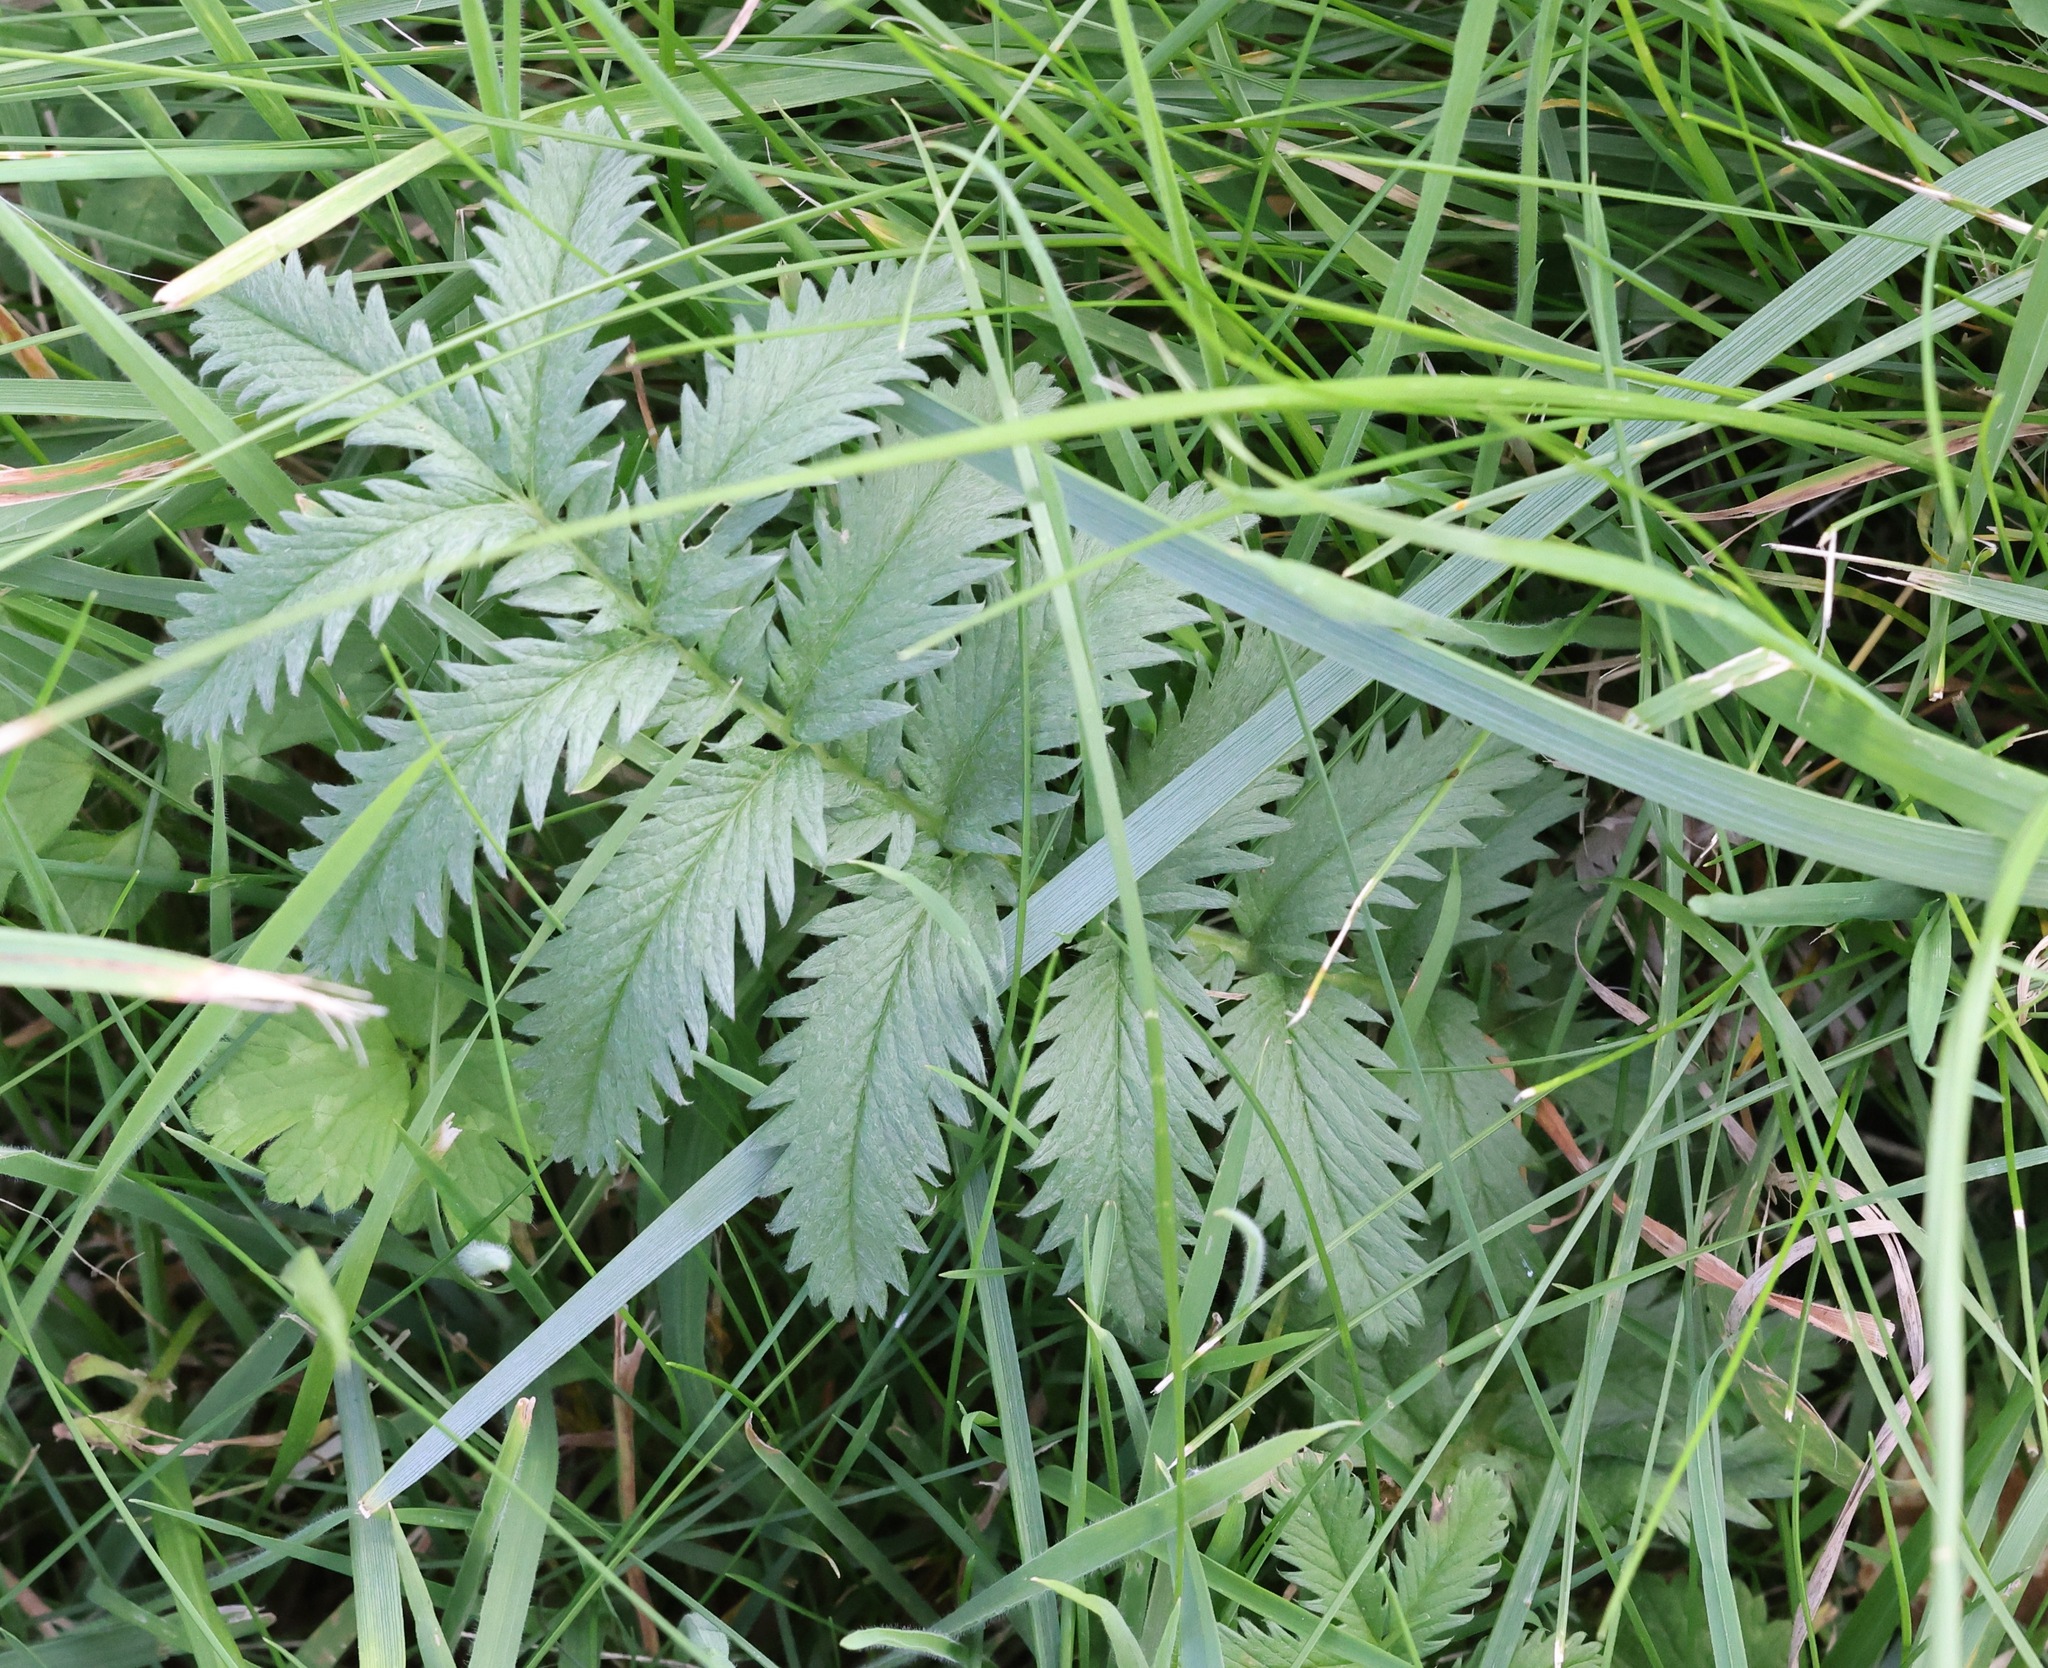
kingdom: Plantae
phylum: Tracheophyta
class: Magnoliopsida
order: Rosales
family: Rosaceae
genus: Argentina
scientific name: Argentina anserina
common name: Common silverweed
